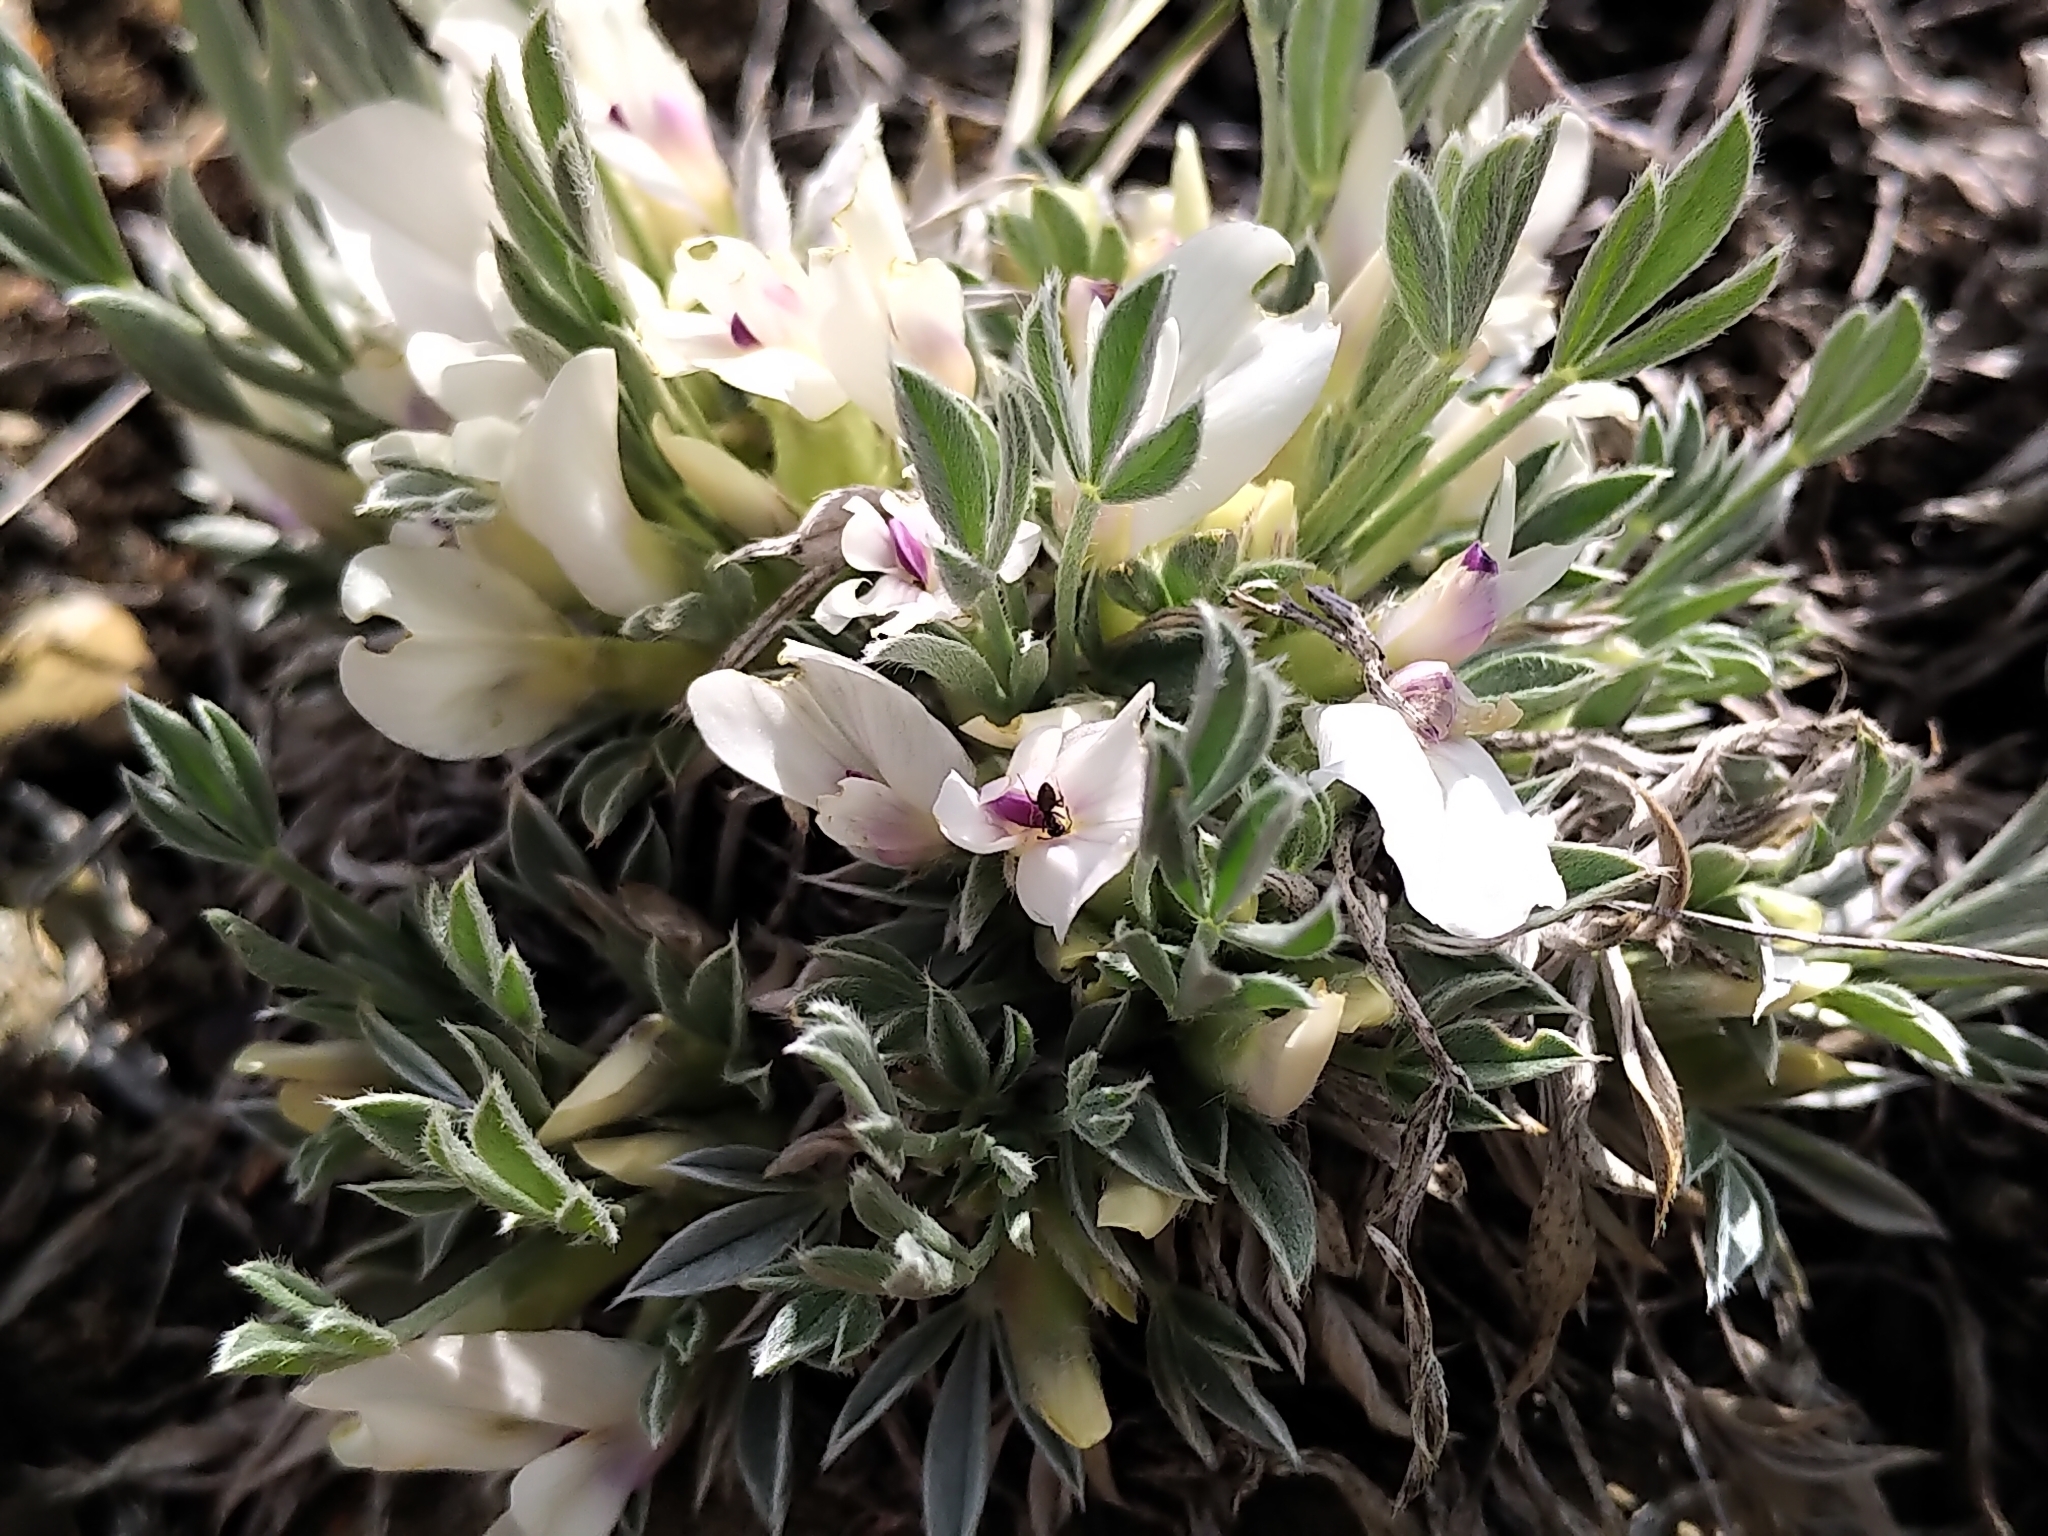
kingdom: Plantae
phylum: Tracheophyta
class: Magnoliopsida
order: Fabales
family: Fabaceae
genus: Astragalus
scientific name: Astragalus gilviflorus
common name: Cushion milk-vetch
